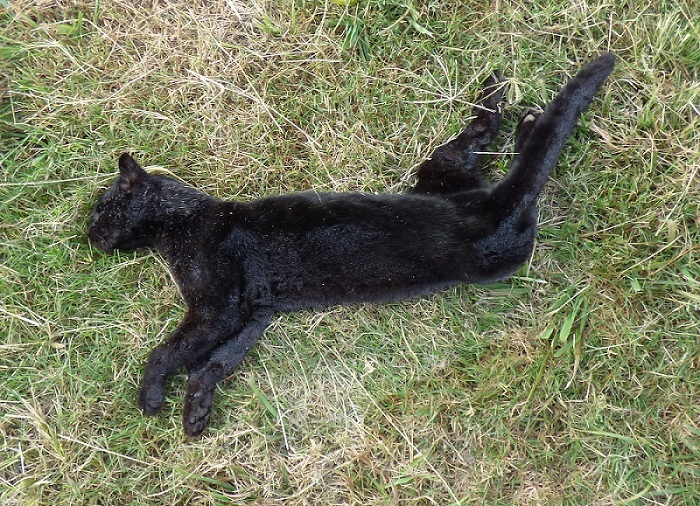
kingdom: Animalia
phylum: Chordata
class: Mammalia
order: Carnivora
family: Felidae
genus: Leopardus
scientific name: Leopardus geoffroyi
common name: Geoffroy's cat
